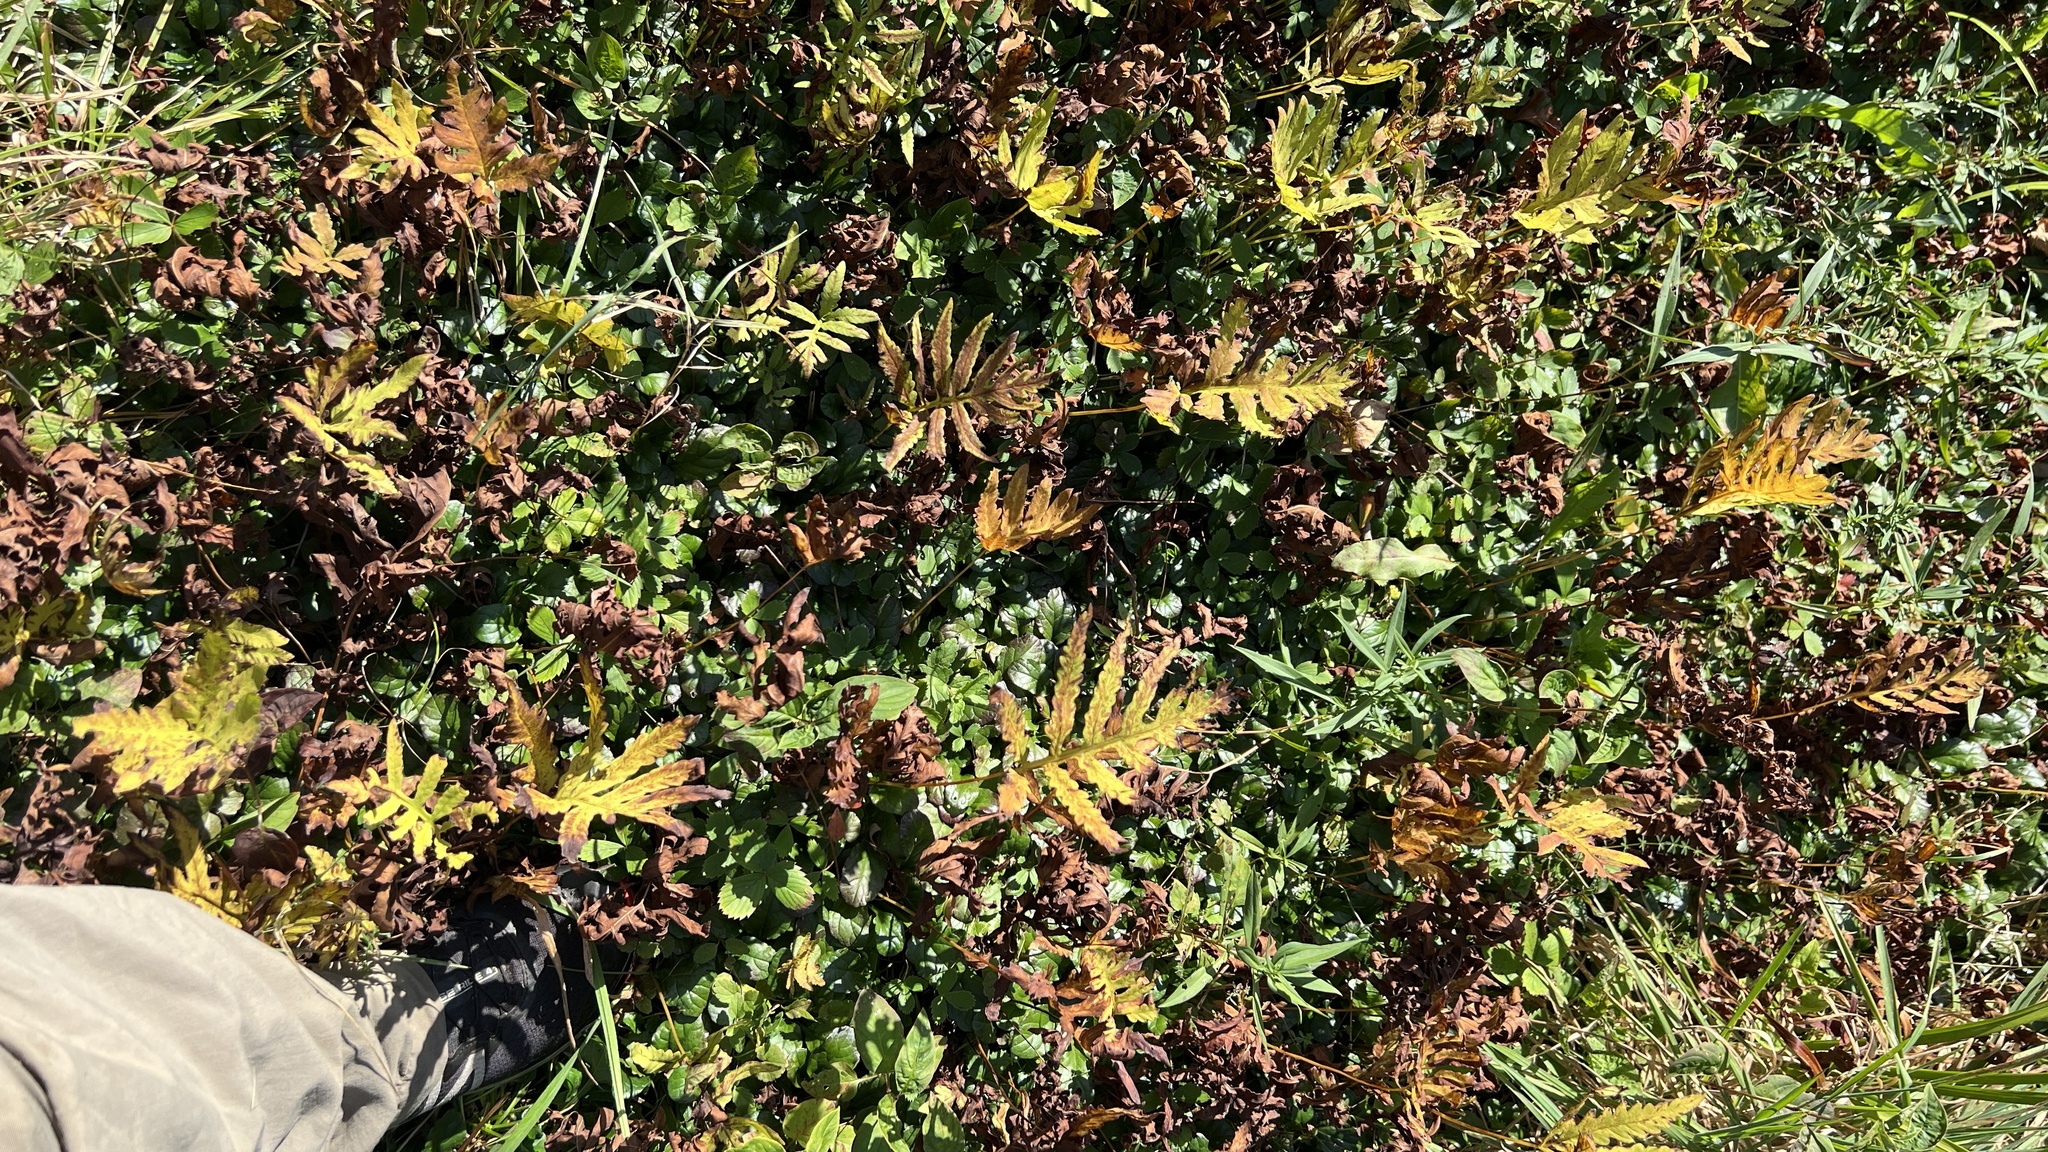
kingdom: Plantae
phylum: Tracheophyta
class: Polypodiopsida
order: Polypodiales
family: Onocleaceae
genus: Onoclea
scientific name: Onoclea sensibilis
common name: Sensitive fern
